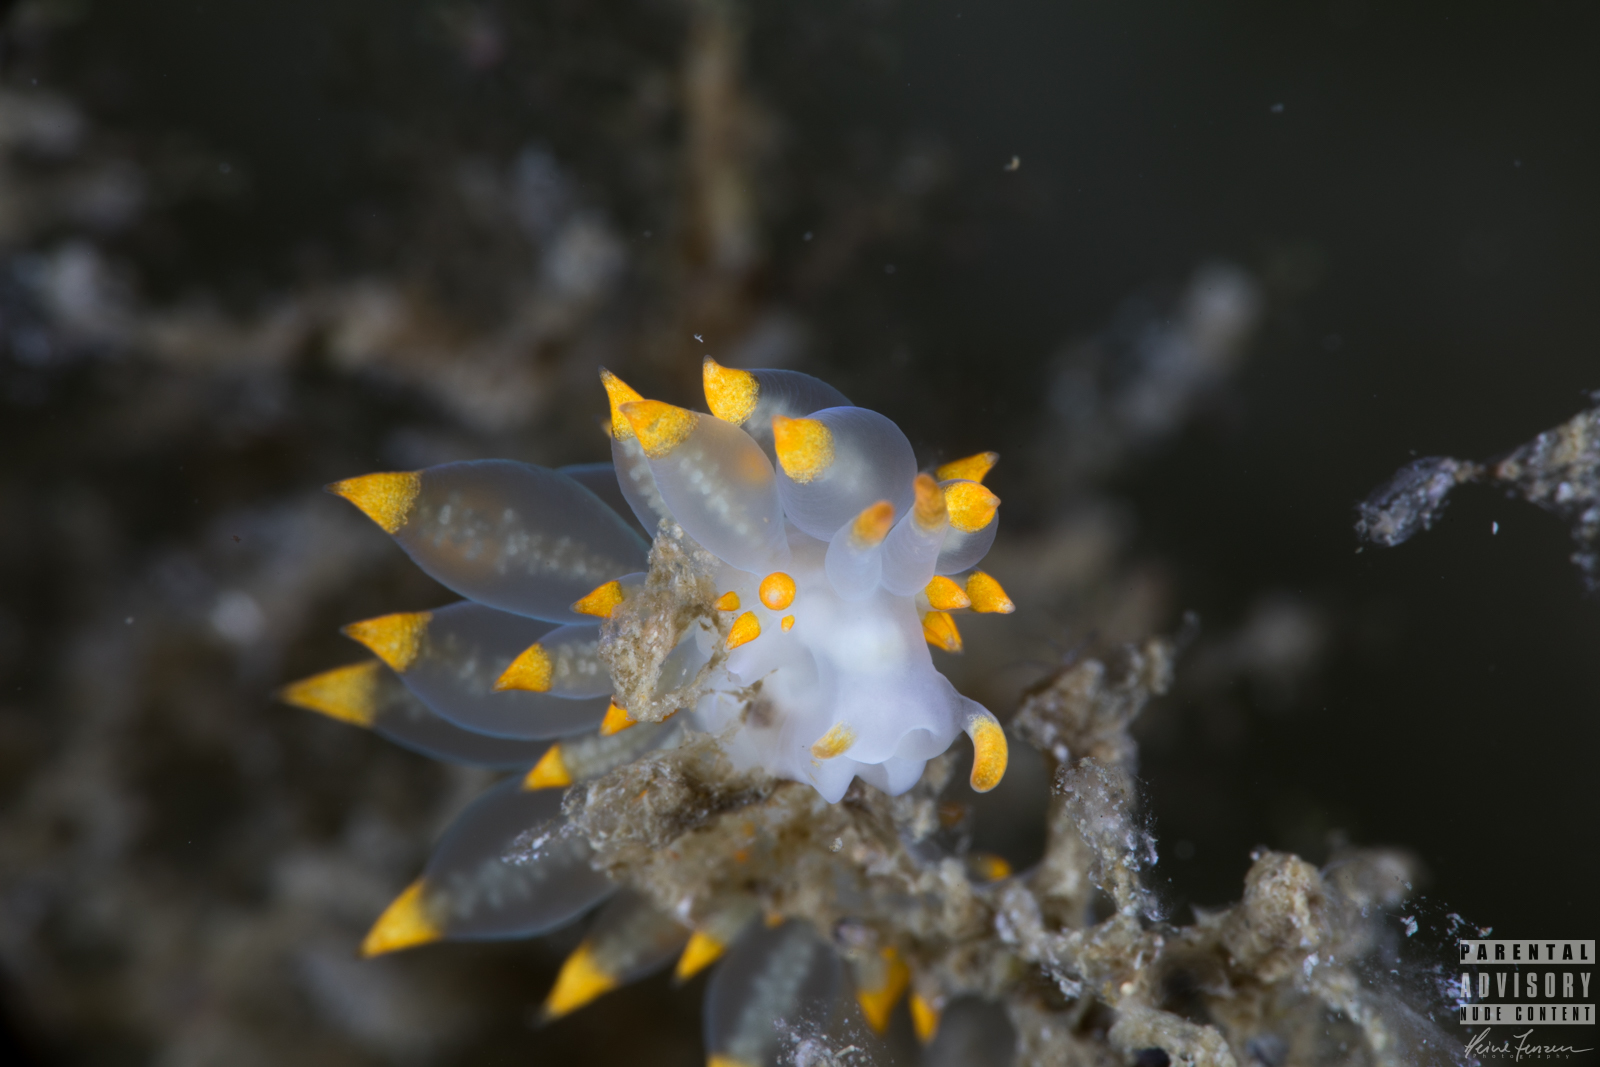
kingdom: Animalia
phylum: Mollusca
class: Gastropoda
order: Nudibranchia
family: Eubranchidae
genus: Amphorina
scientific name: Amphorina farrani
